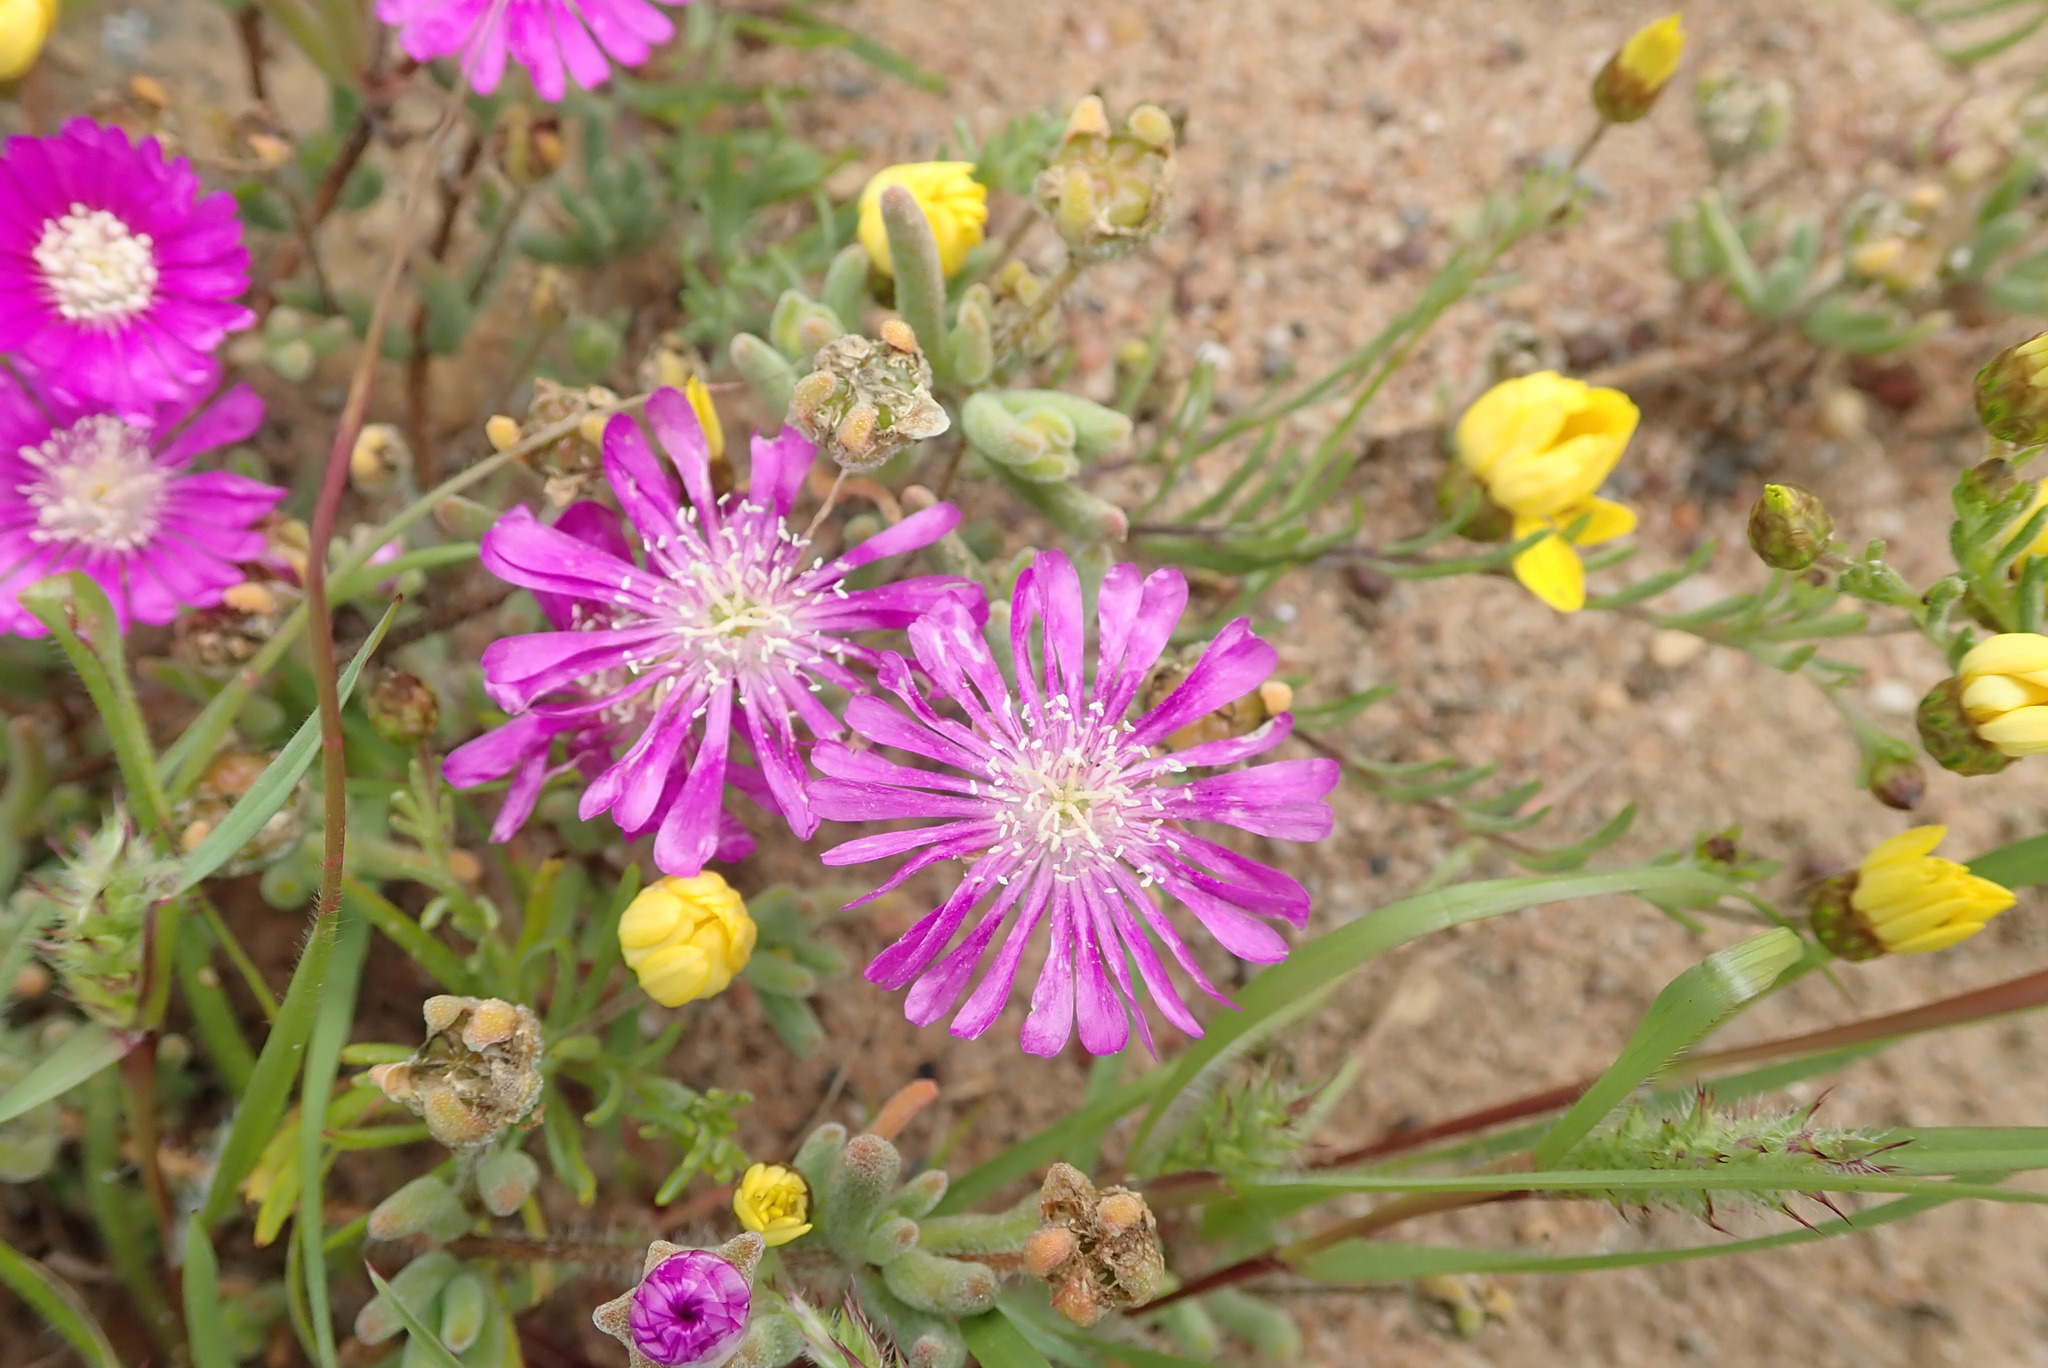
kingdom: Plantae
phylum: Tracheophyta
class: Magnoliopsida
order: Caryophyllales
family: Aizoaceae
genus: Drosanthemum
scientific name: Drosanthemum latipetalum
